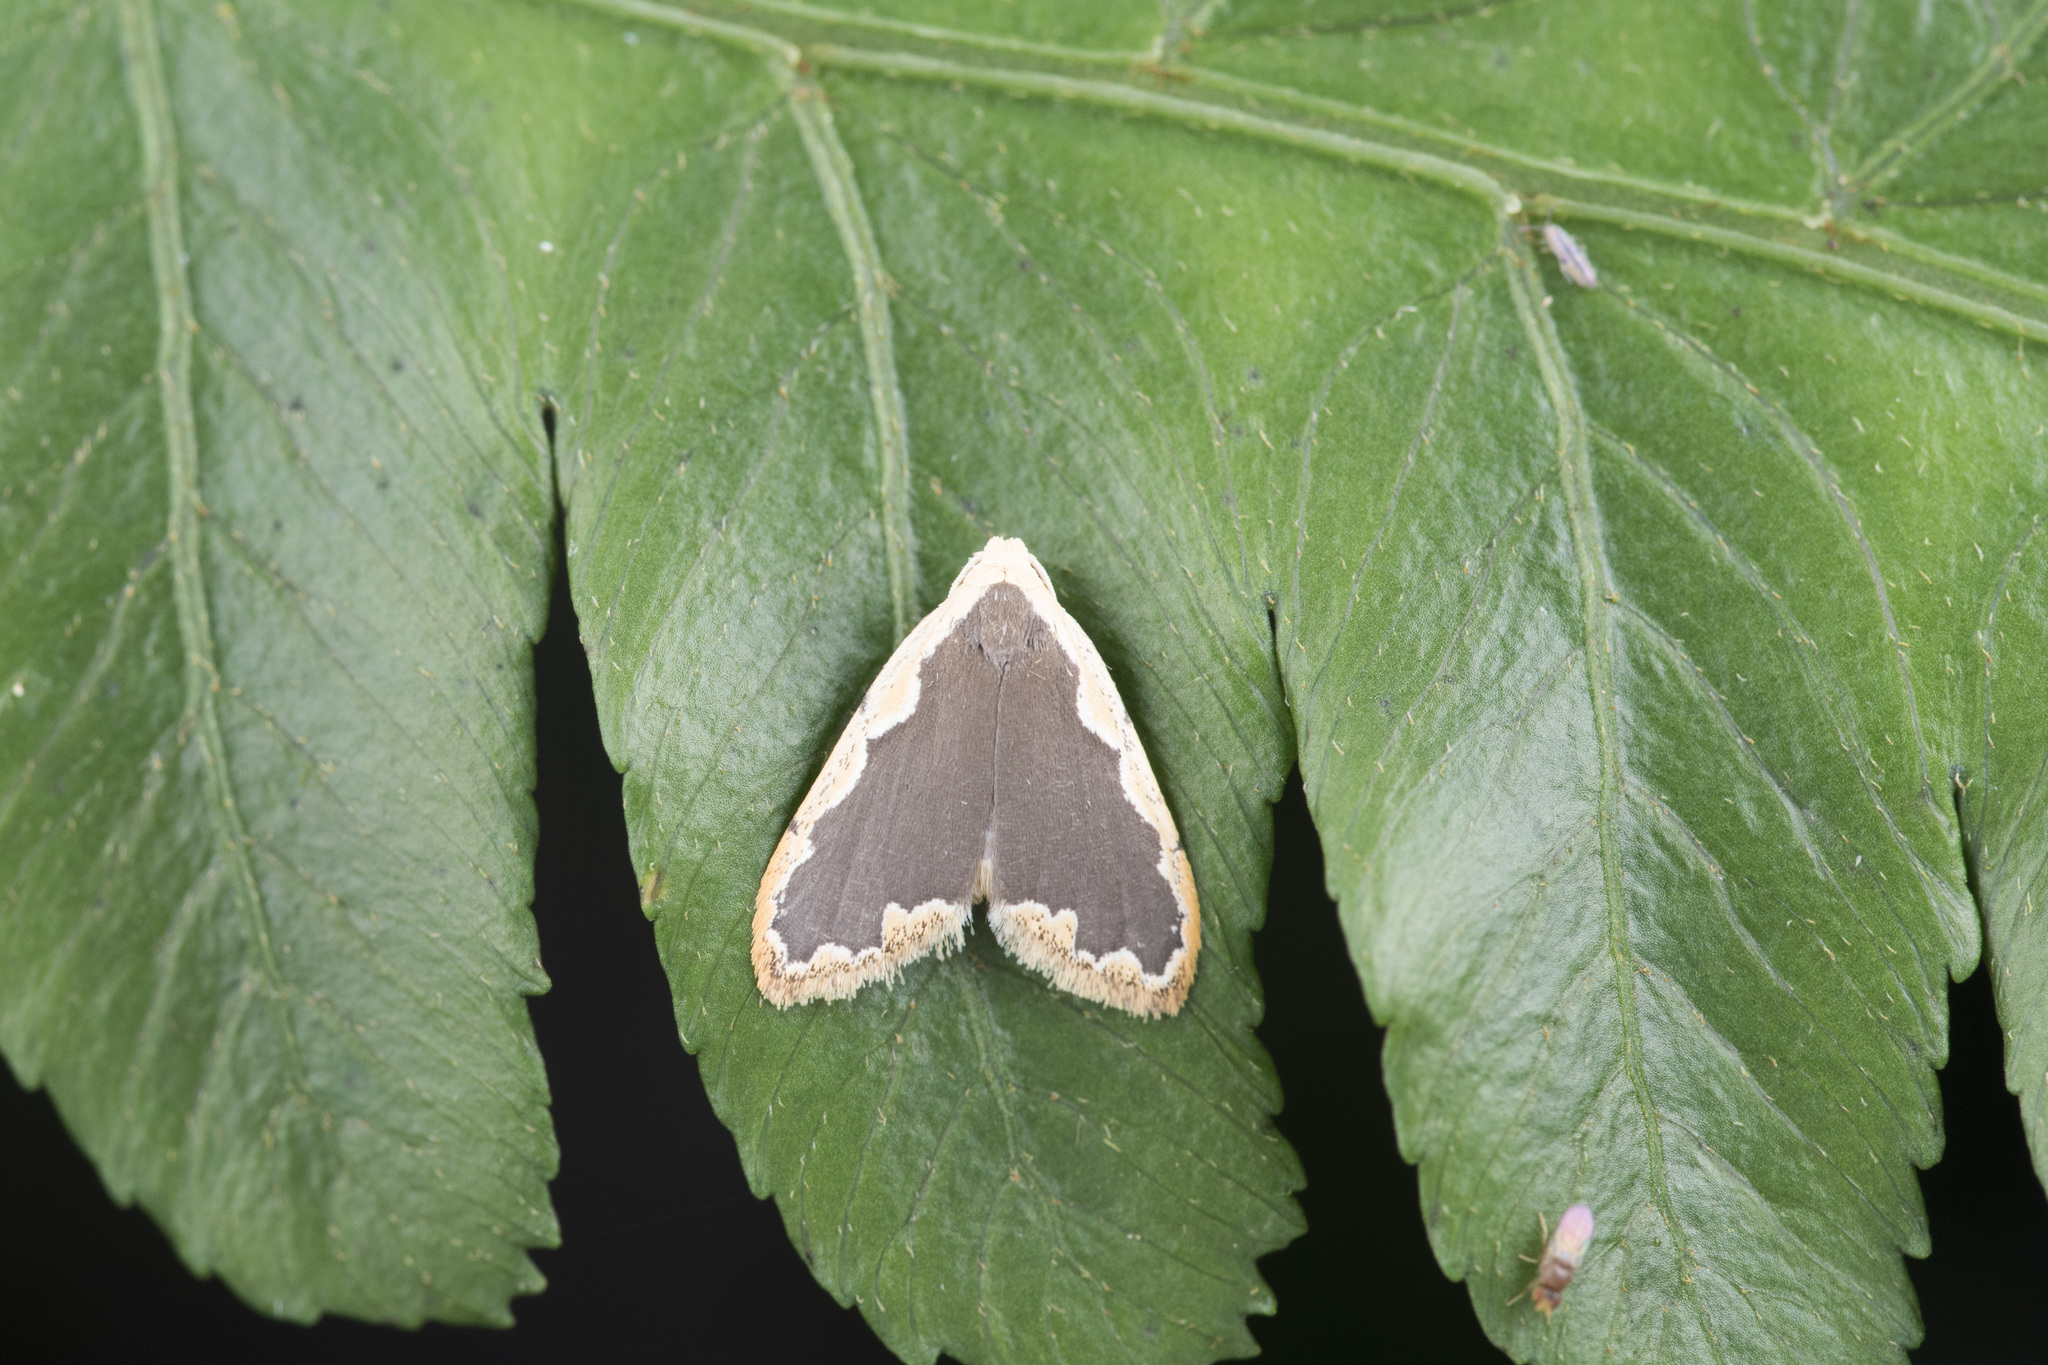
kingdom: Animalia
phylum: Arthropoda
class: Insecta
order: Lepidoptera
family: Erebidae
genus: Diduga
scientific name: Diduga taiwana
